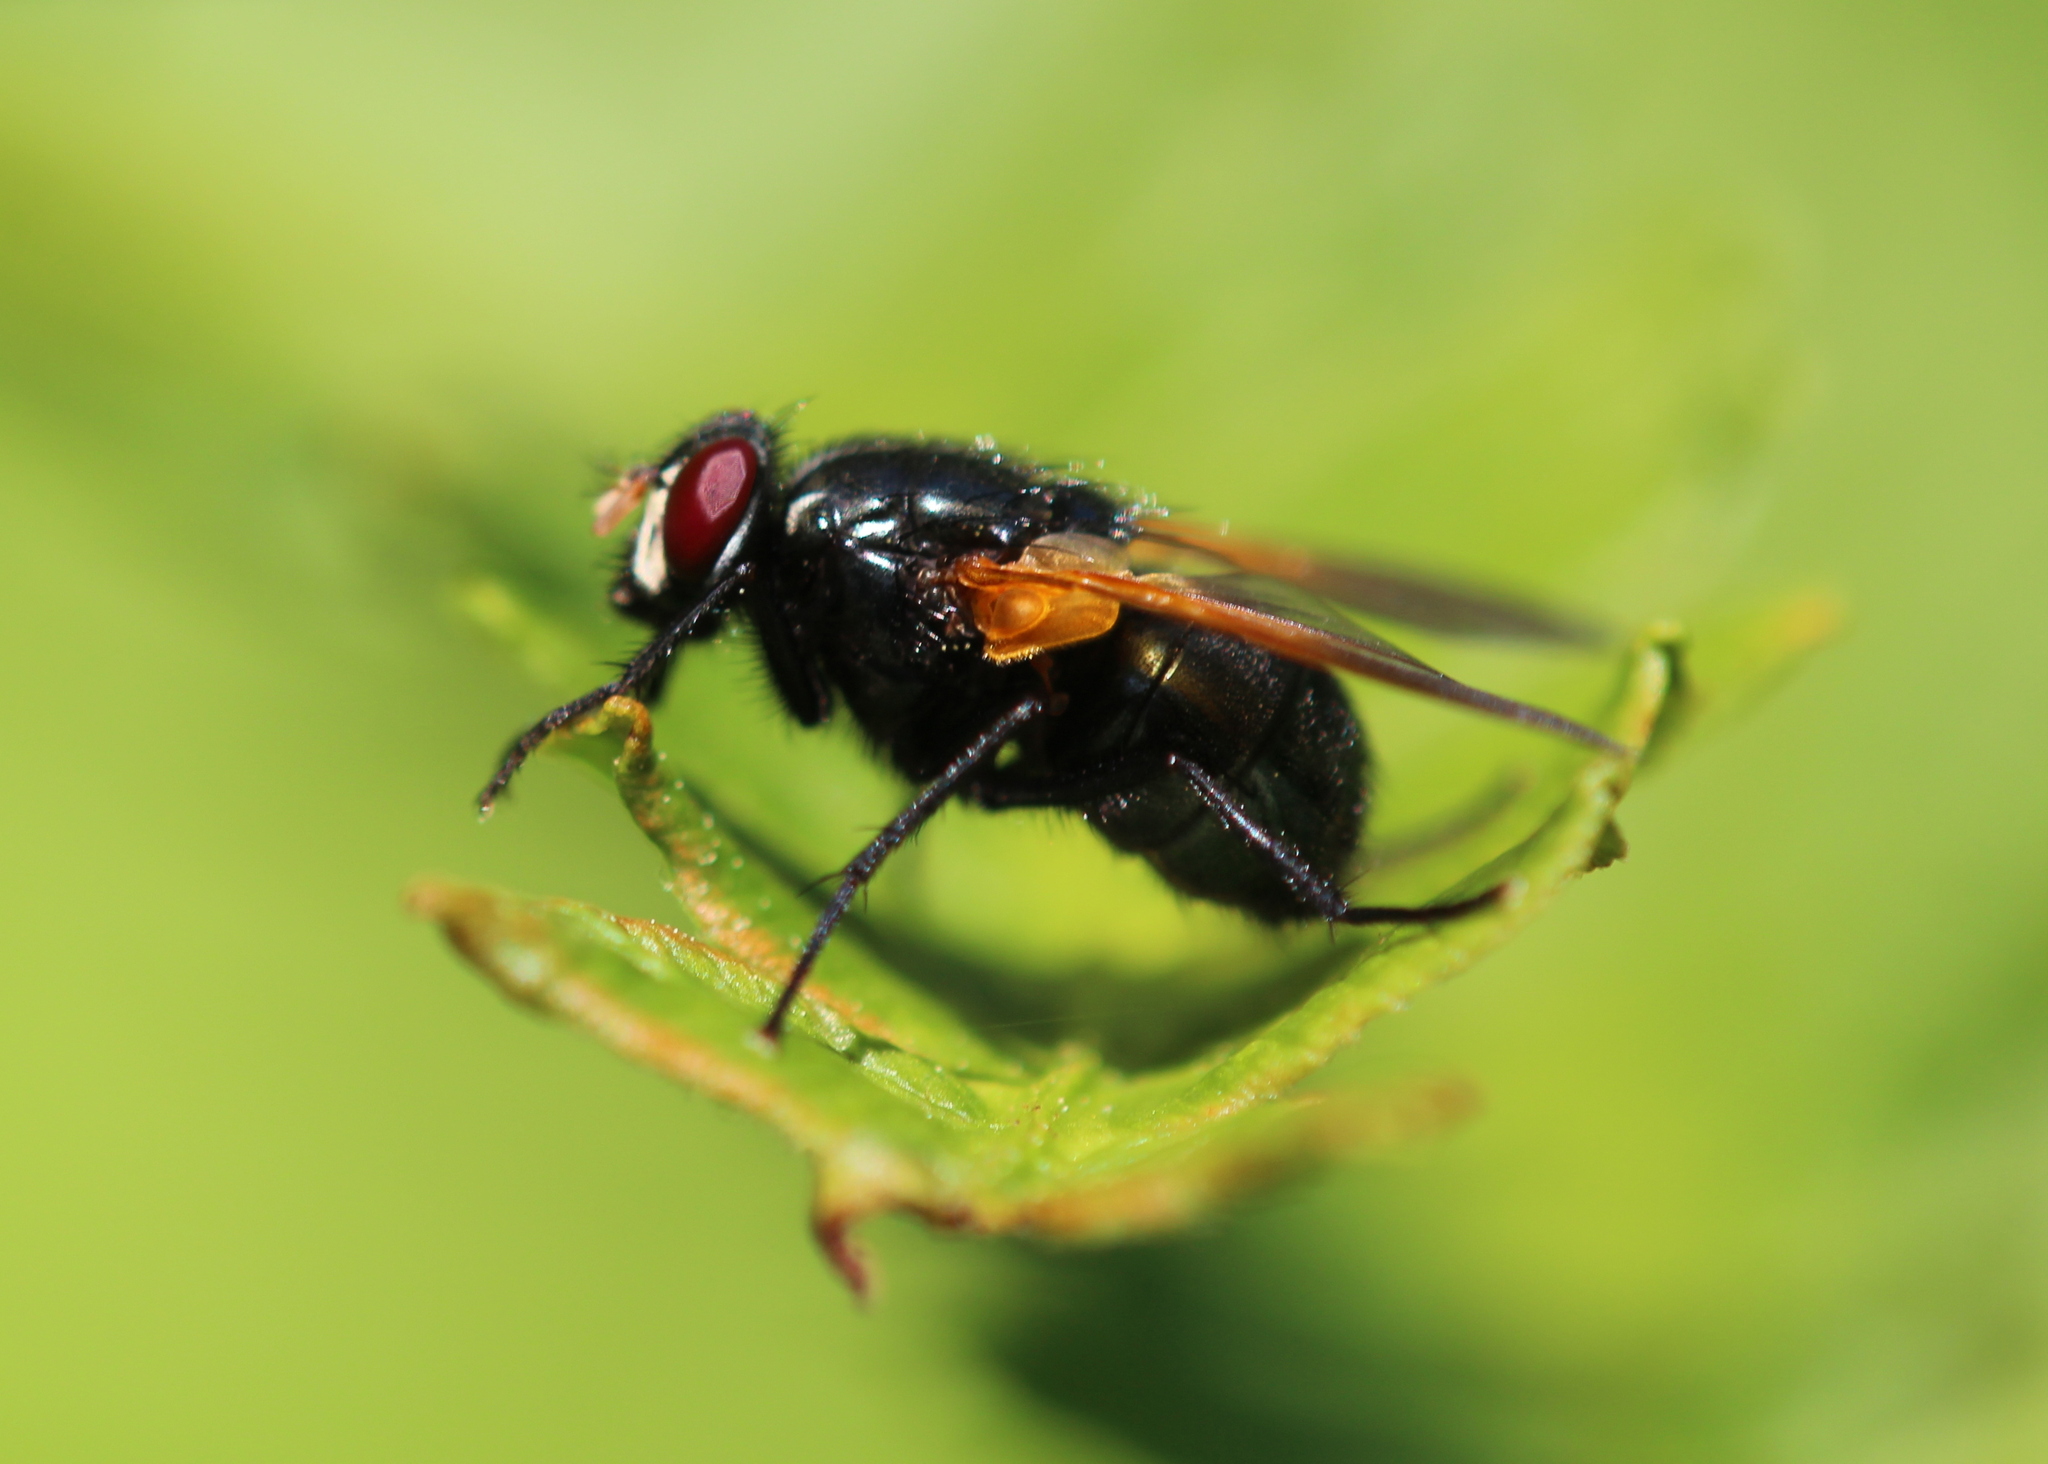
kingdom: Animalia
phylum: Arthropoda
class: Insecta
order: Diptera
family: Muscidae
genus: Mesembrina
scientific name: Mesembrina latreillii
